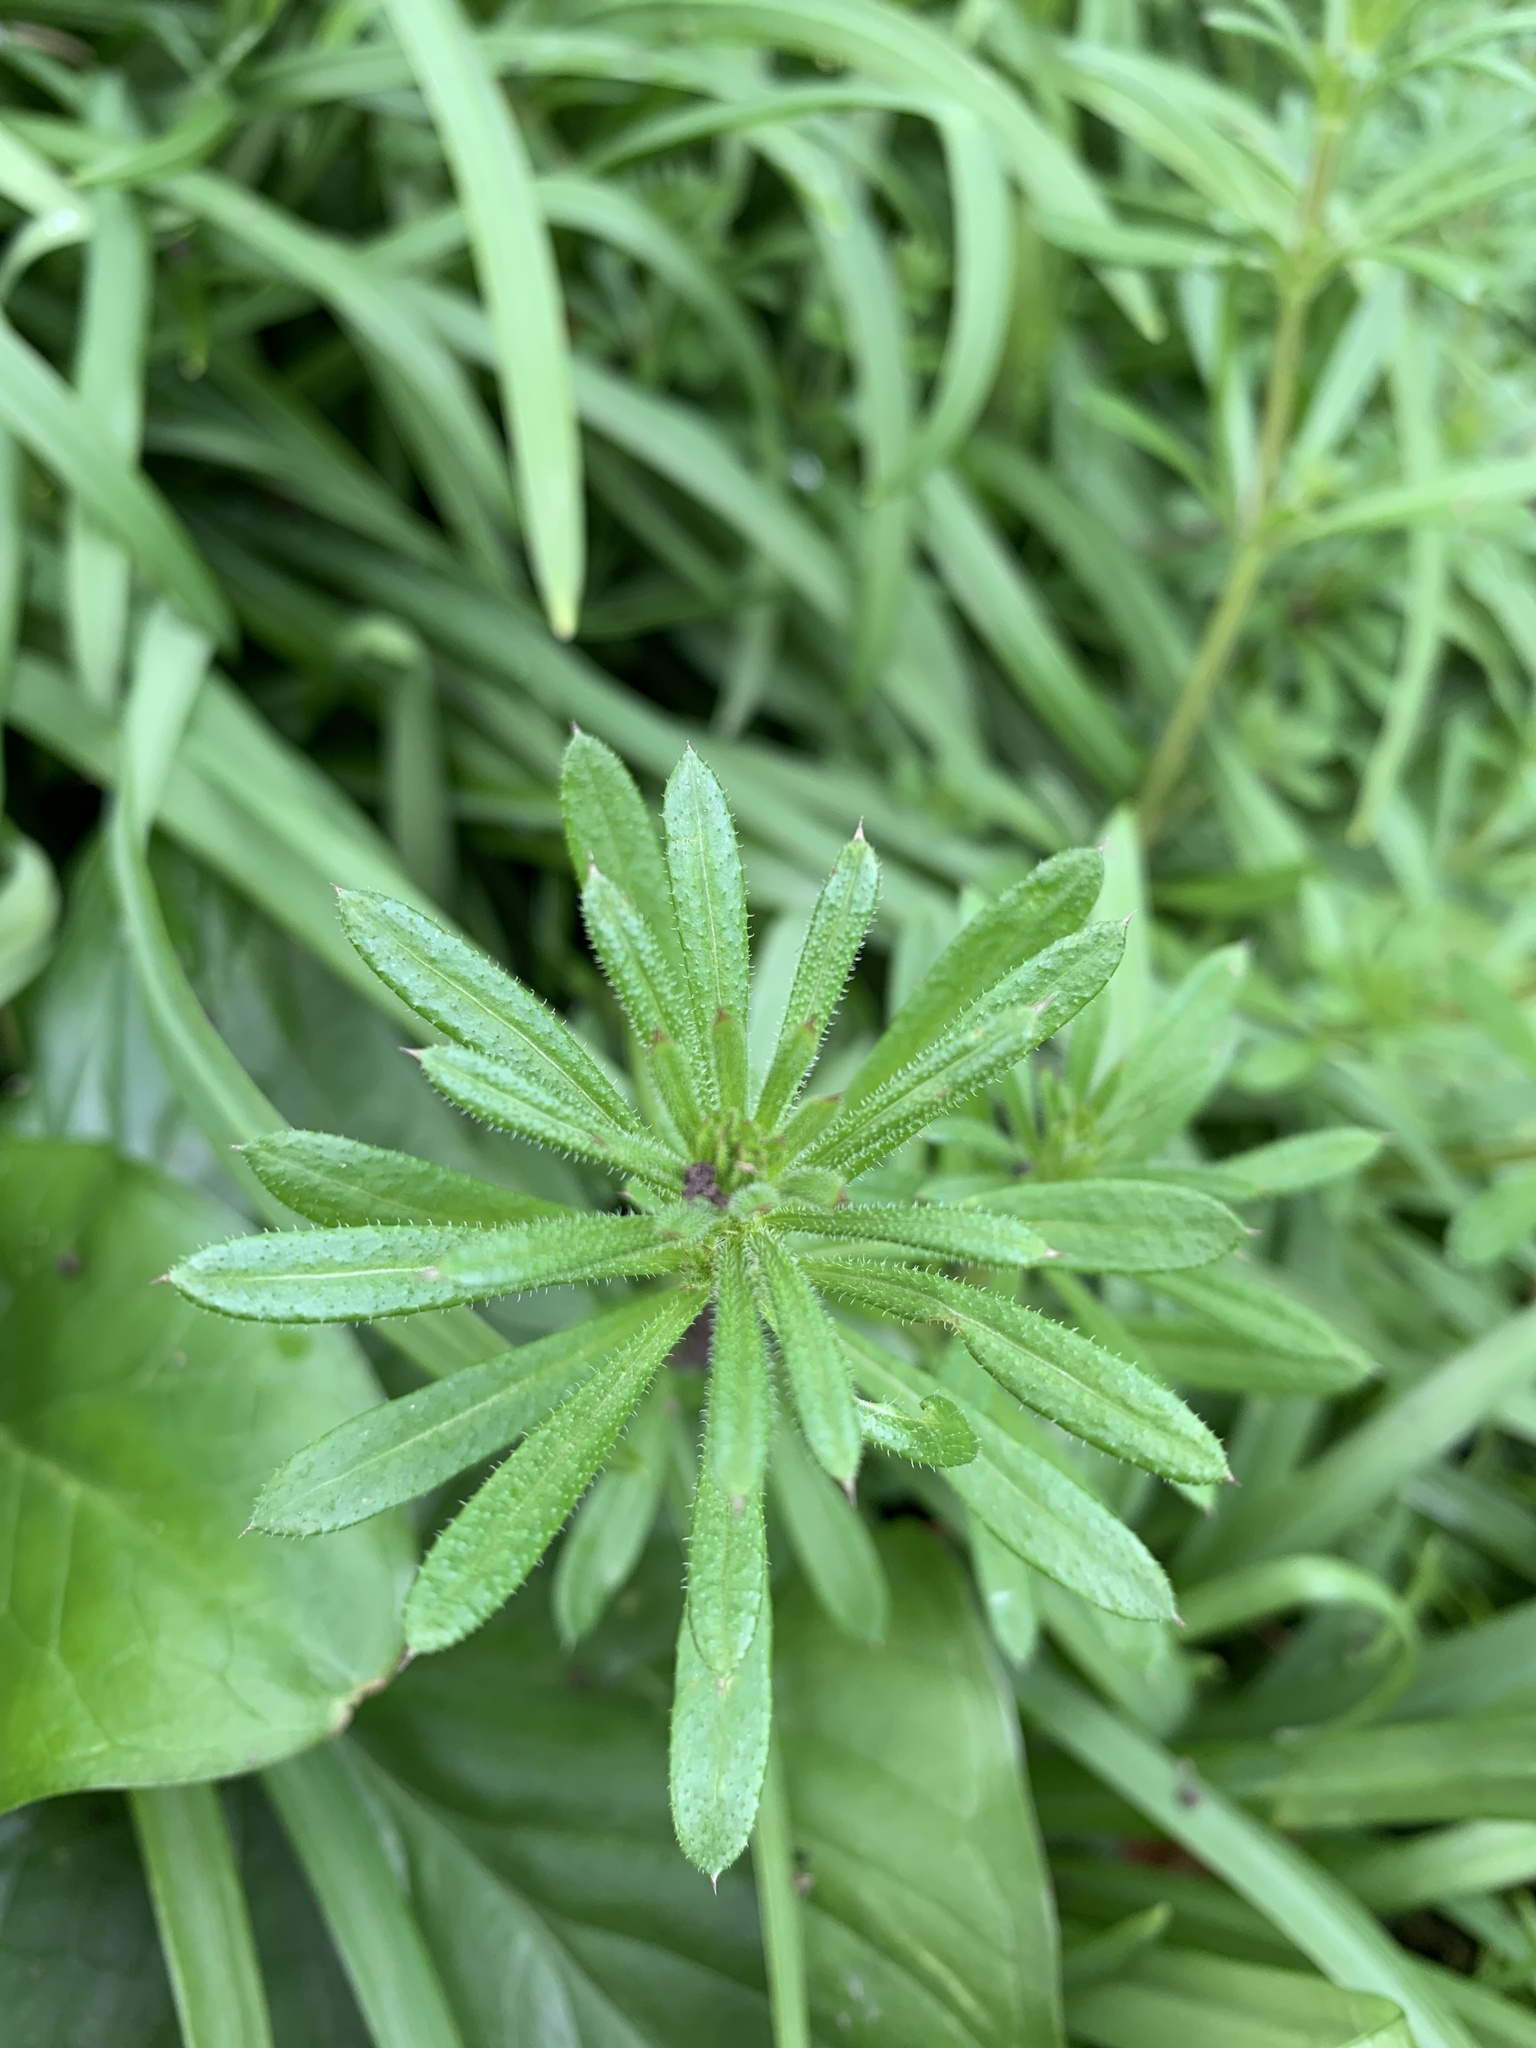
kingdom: Plantae
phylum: Tracheophyta
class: Magnoliopsida
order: Gentianales
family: Rubiaceae
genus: Galium
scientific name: Galium aparine
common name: Cleavers
